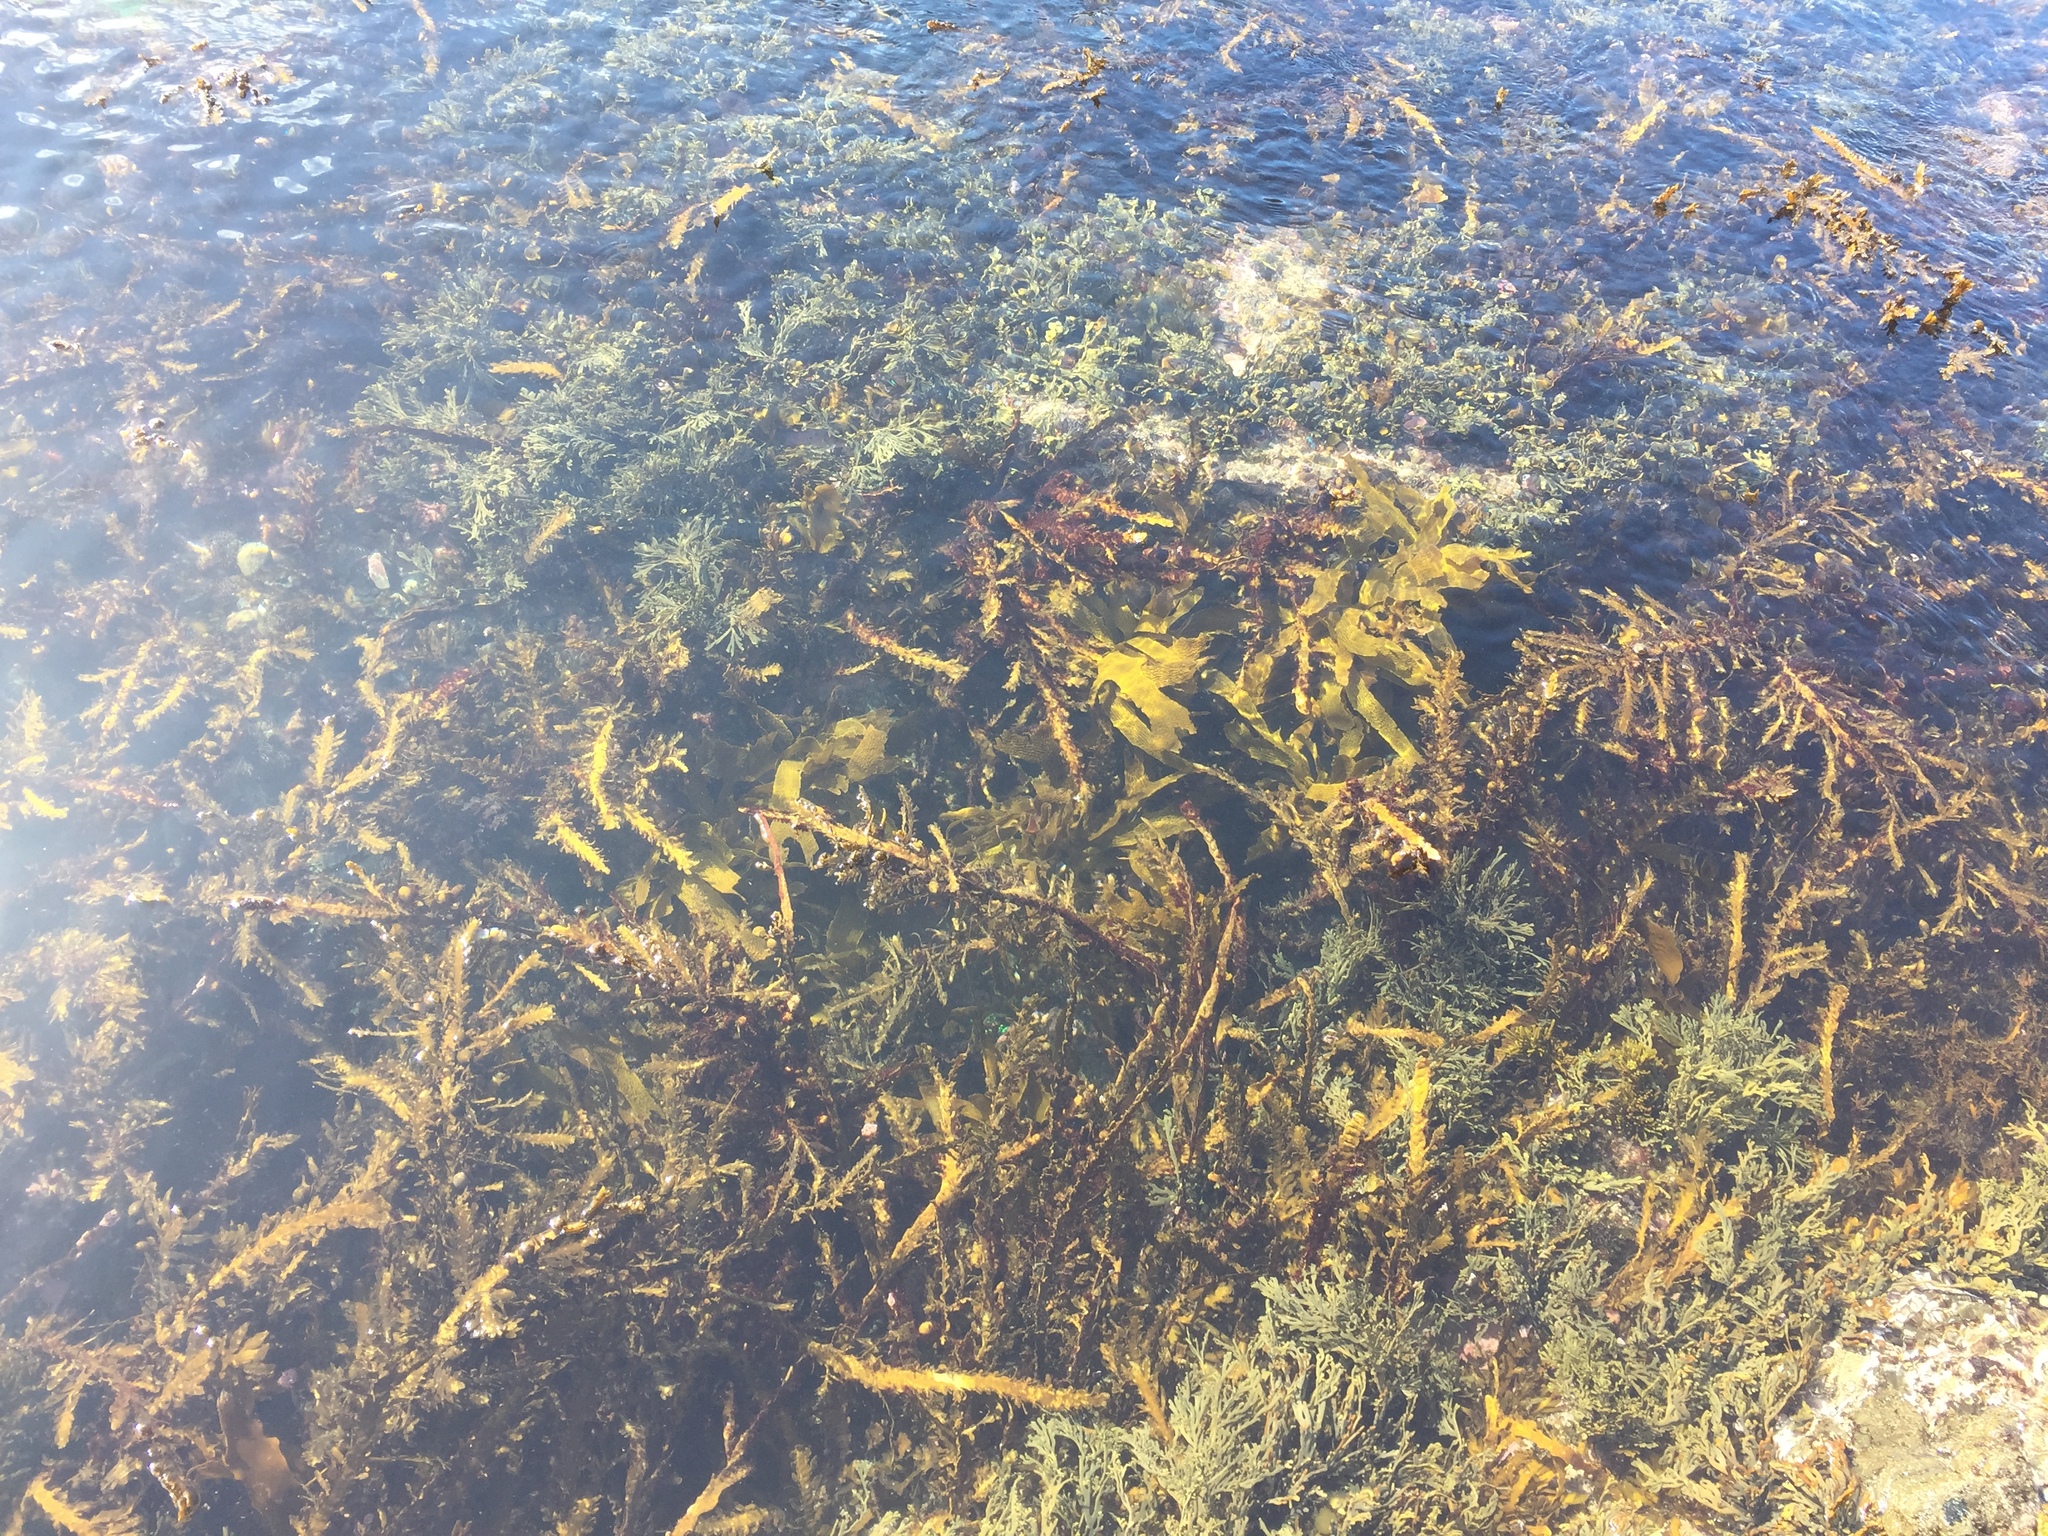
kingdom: Chromista
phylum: Ochrophyta
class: Phaeophyceae
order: Fucales
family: Sargassaceae
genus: Carpophyllum
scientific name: Carpophyllum maschalocarpum
